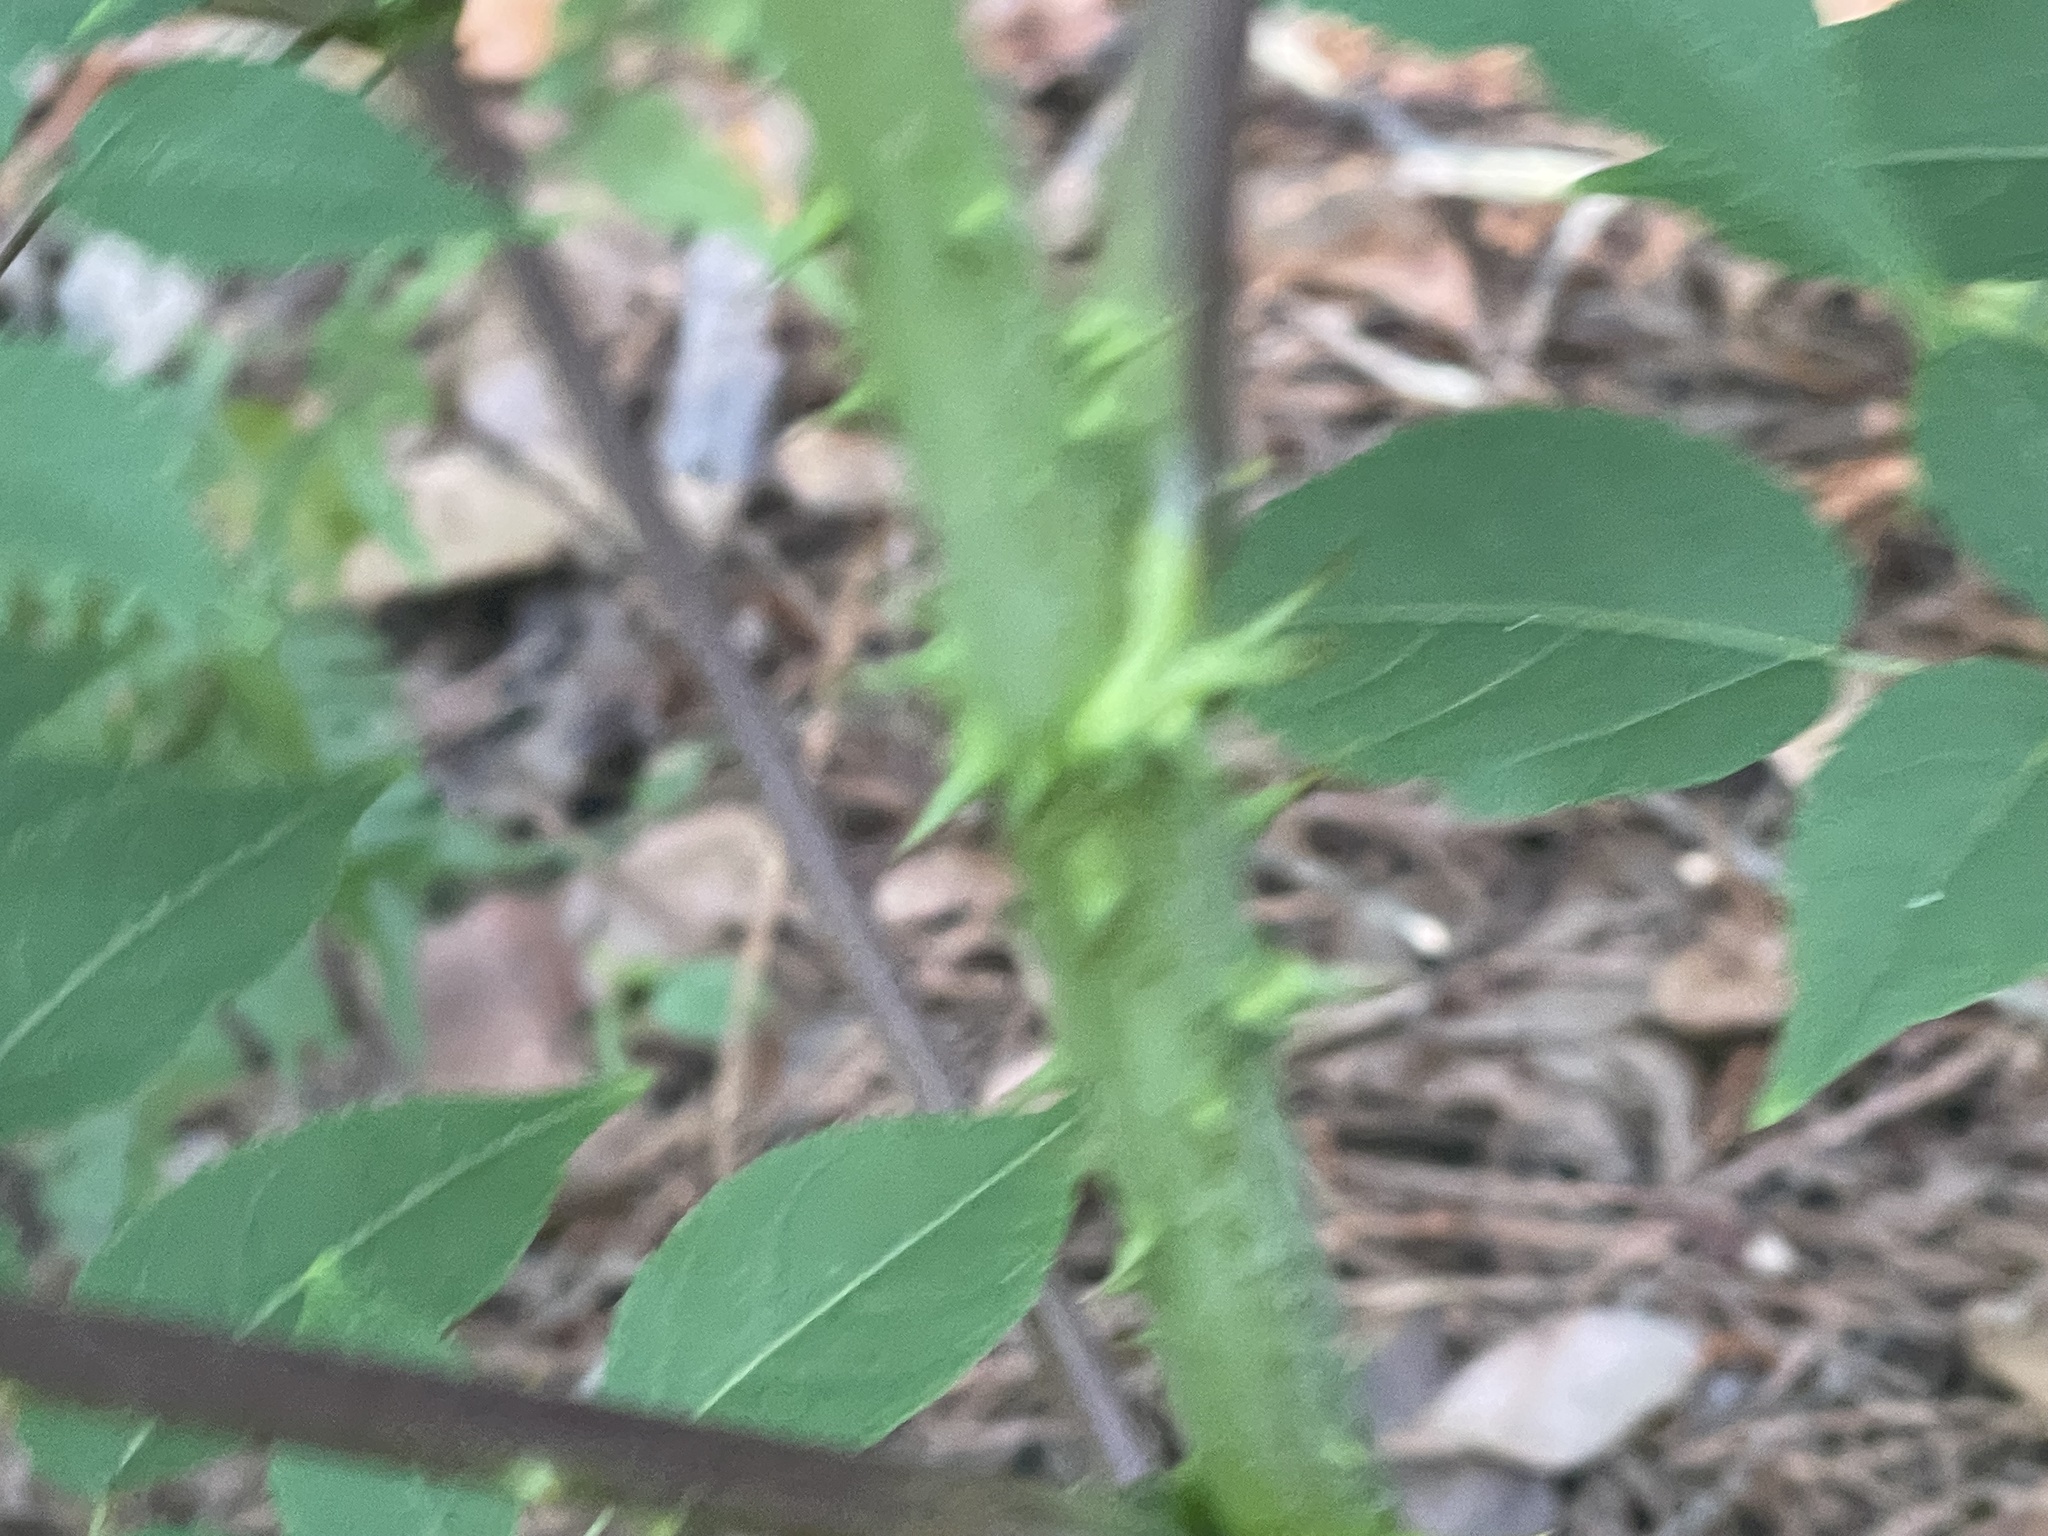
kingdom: Plantae
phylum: Tracheophyta
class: Magnoliopsida
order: Apiales
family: Araliaceae
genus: Aralia
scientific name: Aralia spinosa
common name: Hercules'-club
